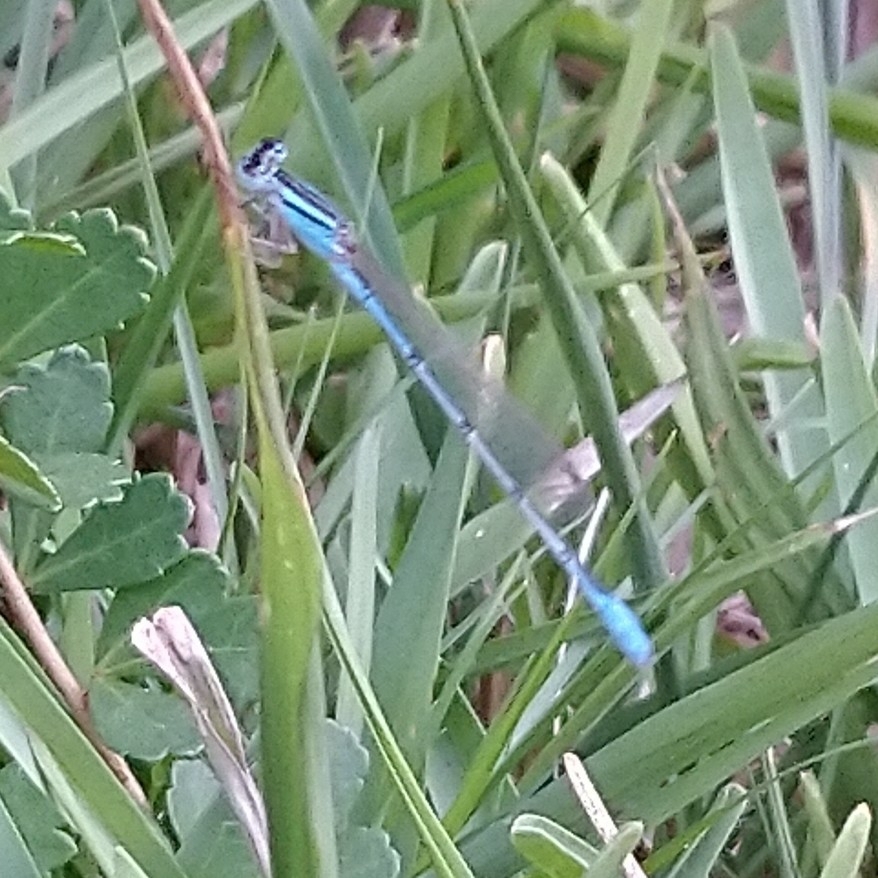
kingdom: Animalia
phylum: Arthropoda
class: Insecta
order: Odonata
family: Coenagrionidae
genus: Africallagma
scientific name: Africallagma glaucum
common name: Swamp bluet
